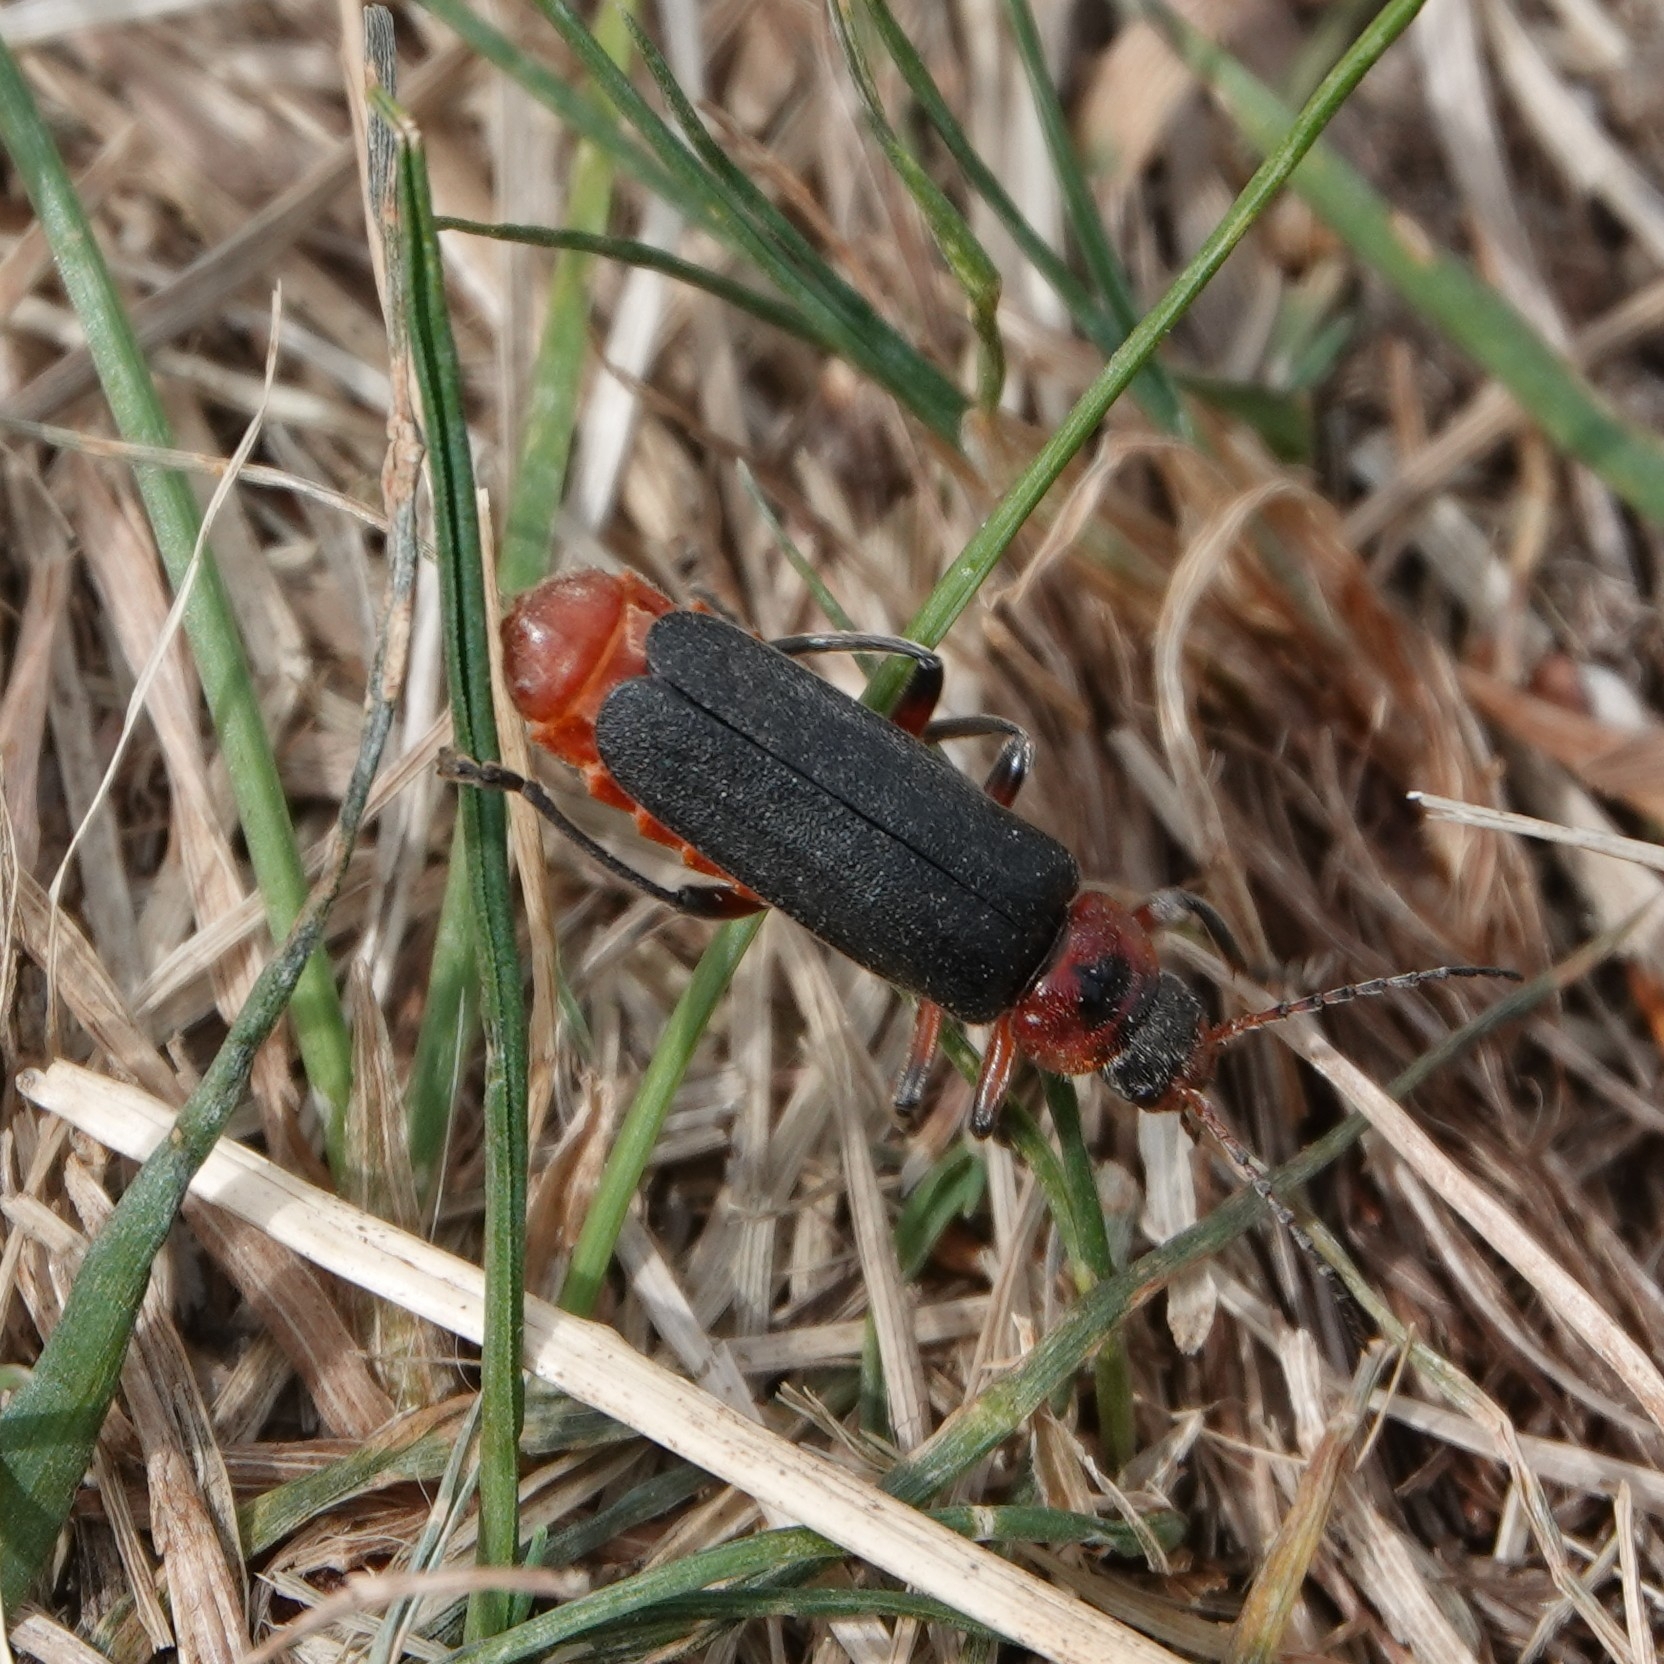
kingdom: Animalia
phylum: Arthropoda
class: Insecta
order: Coleoptera
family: Cantharidae
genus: Cantharis
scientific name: Cantharis rustica
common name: Soldier beetle
